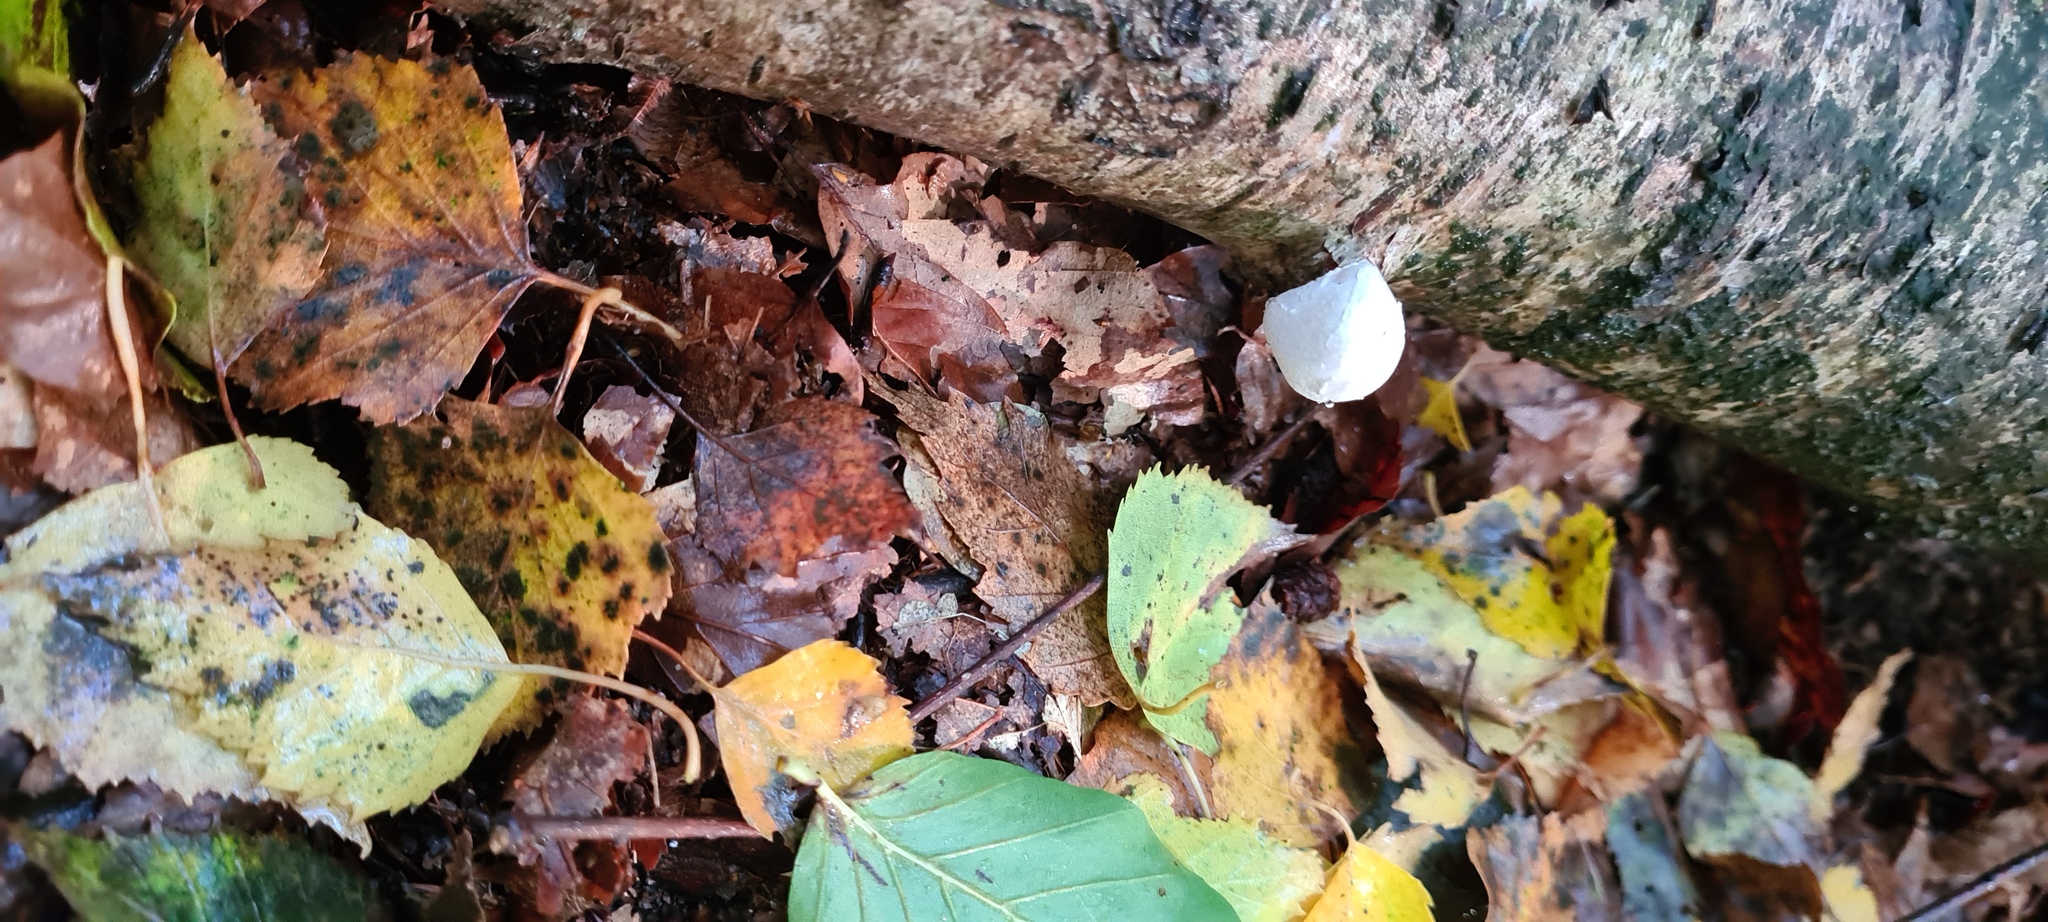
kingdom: Fungi
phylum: Basidiomycota
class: Agaricomycetes
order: Polyporales
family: Fomitopsidaceae
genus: Fomitopsis
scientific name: Fomitopsis betulina
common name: Birch polypore
